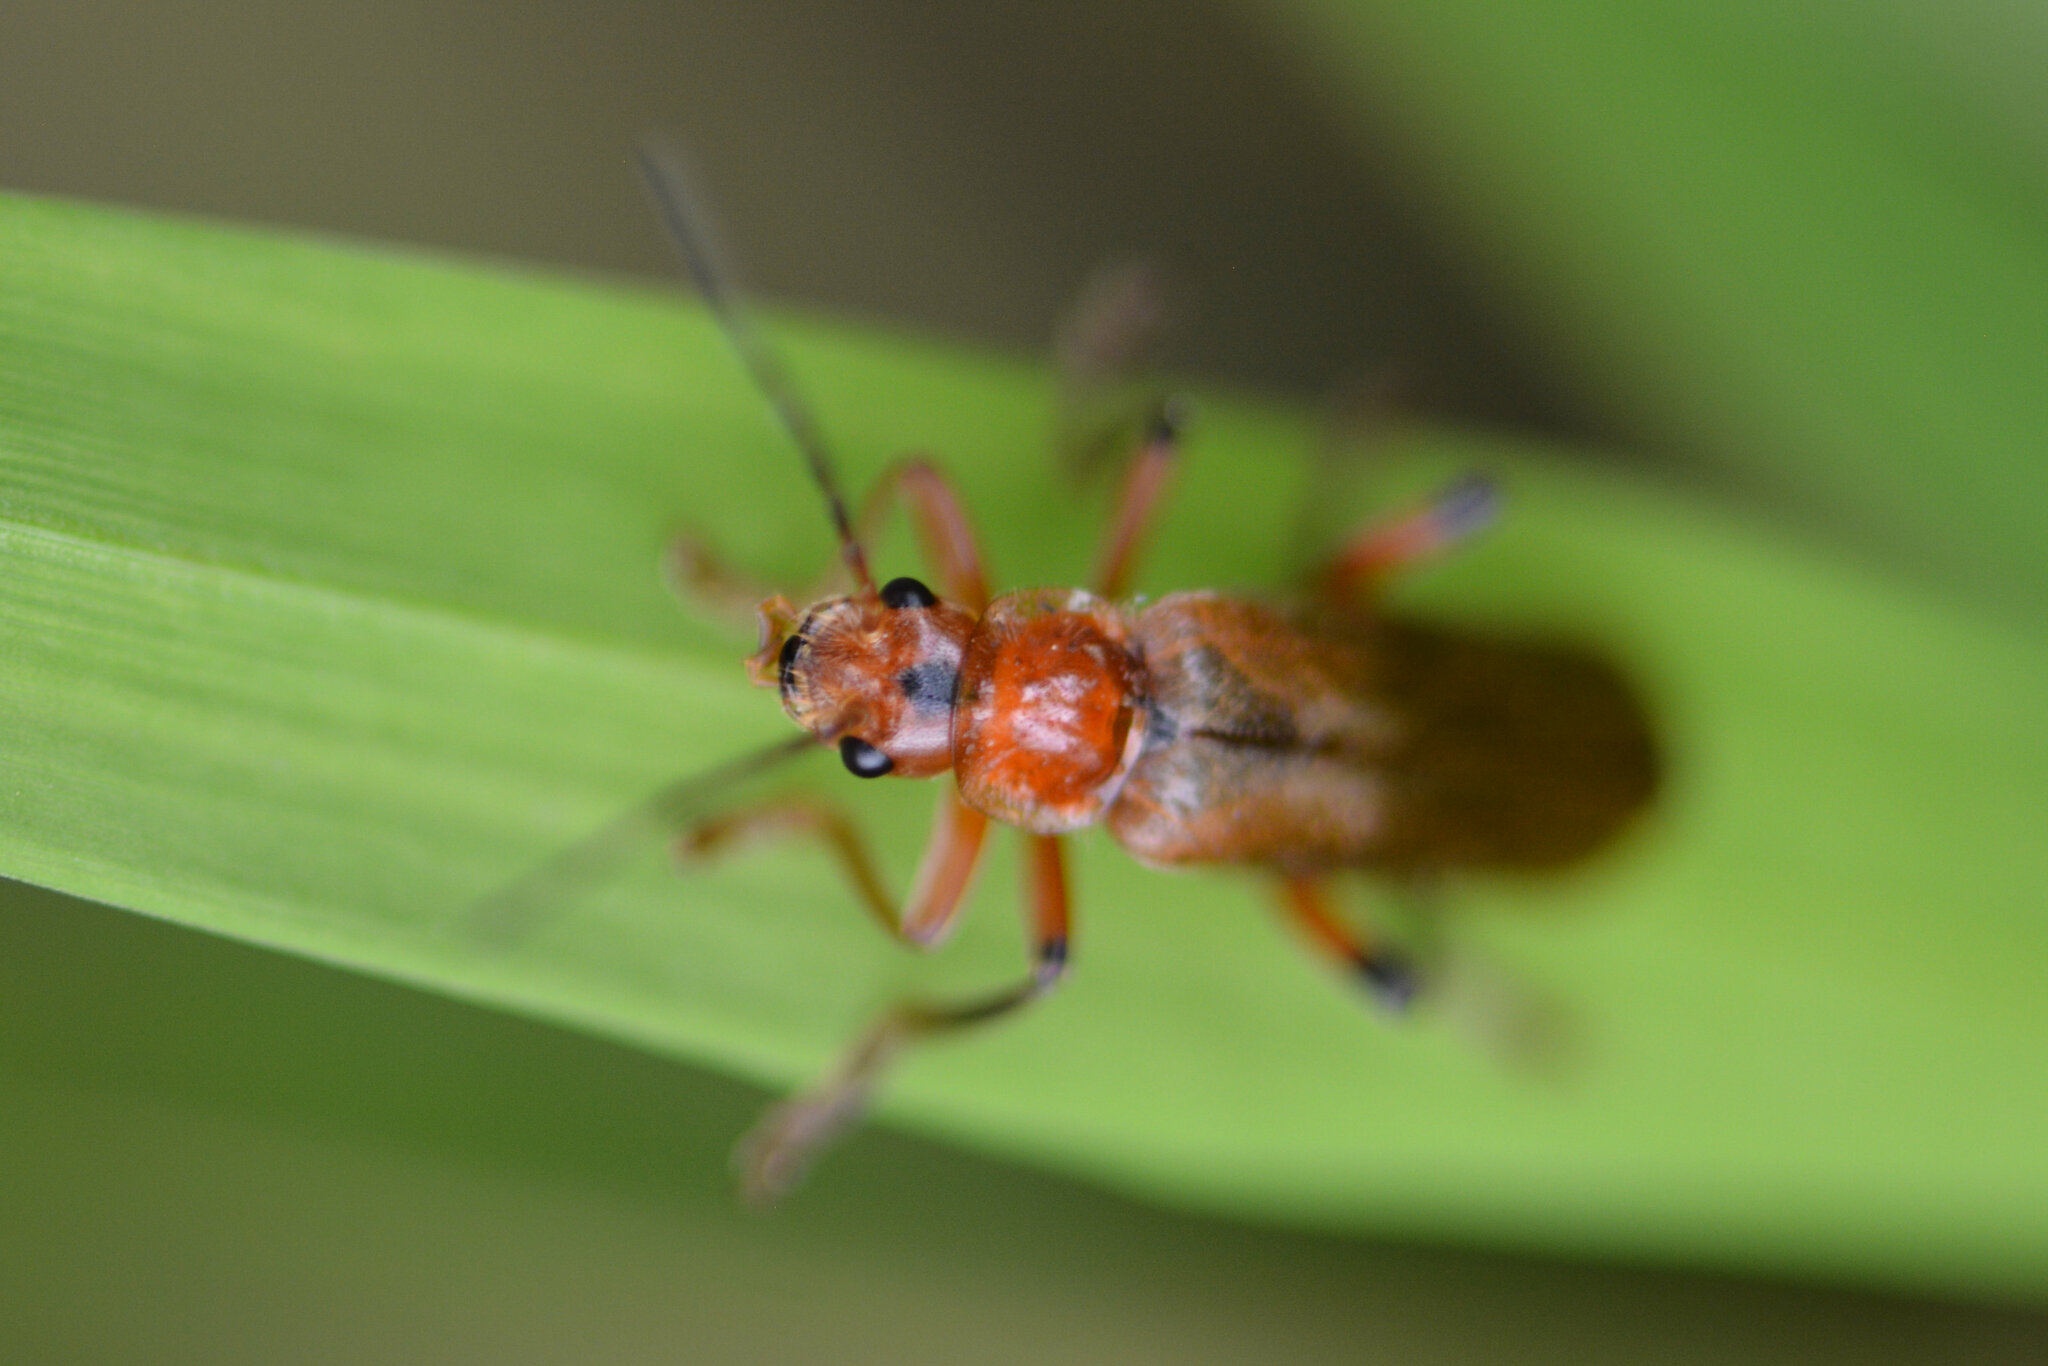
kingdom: Animalia
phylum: Arthropoda
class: Insecta
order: Coleoptera
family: Cantharidae
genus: Cantharis
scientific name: Cantharis livida
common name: Livid soldier beetle
